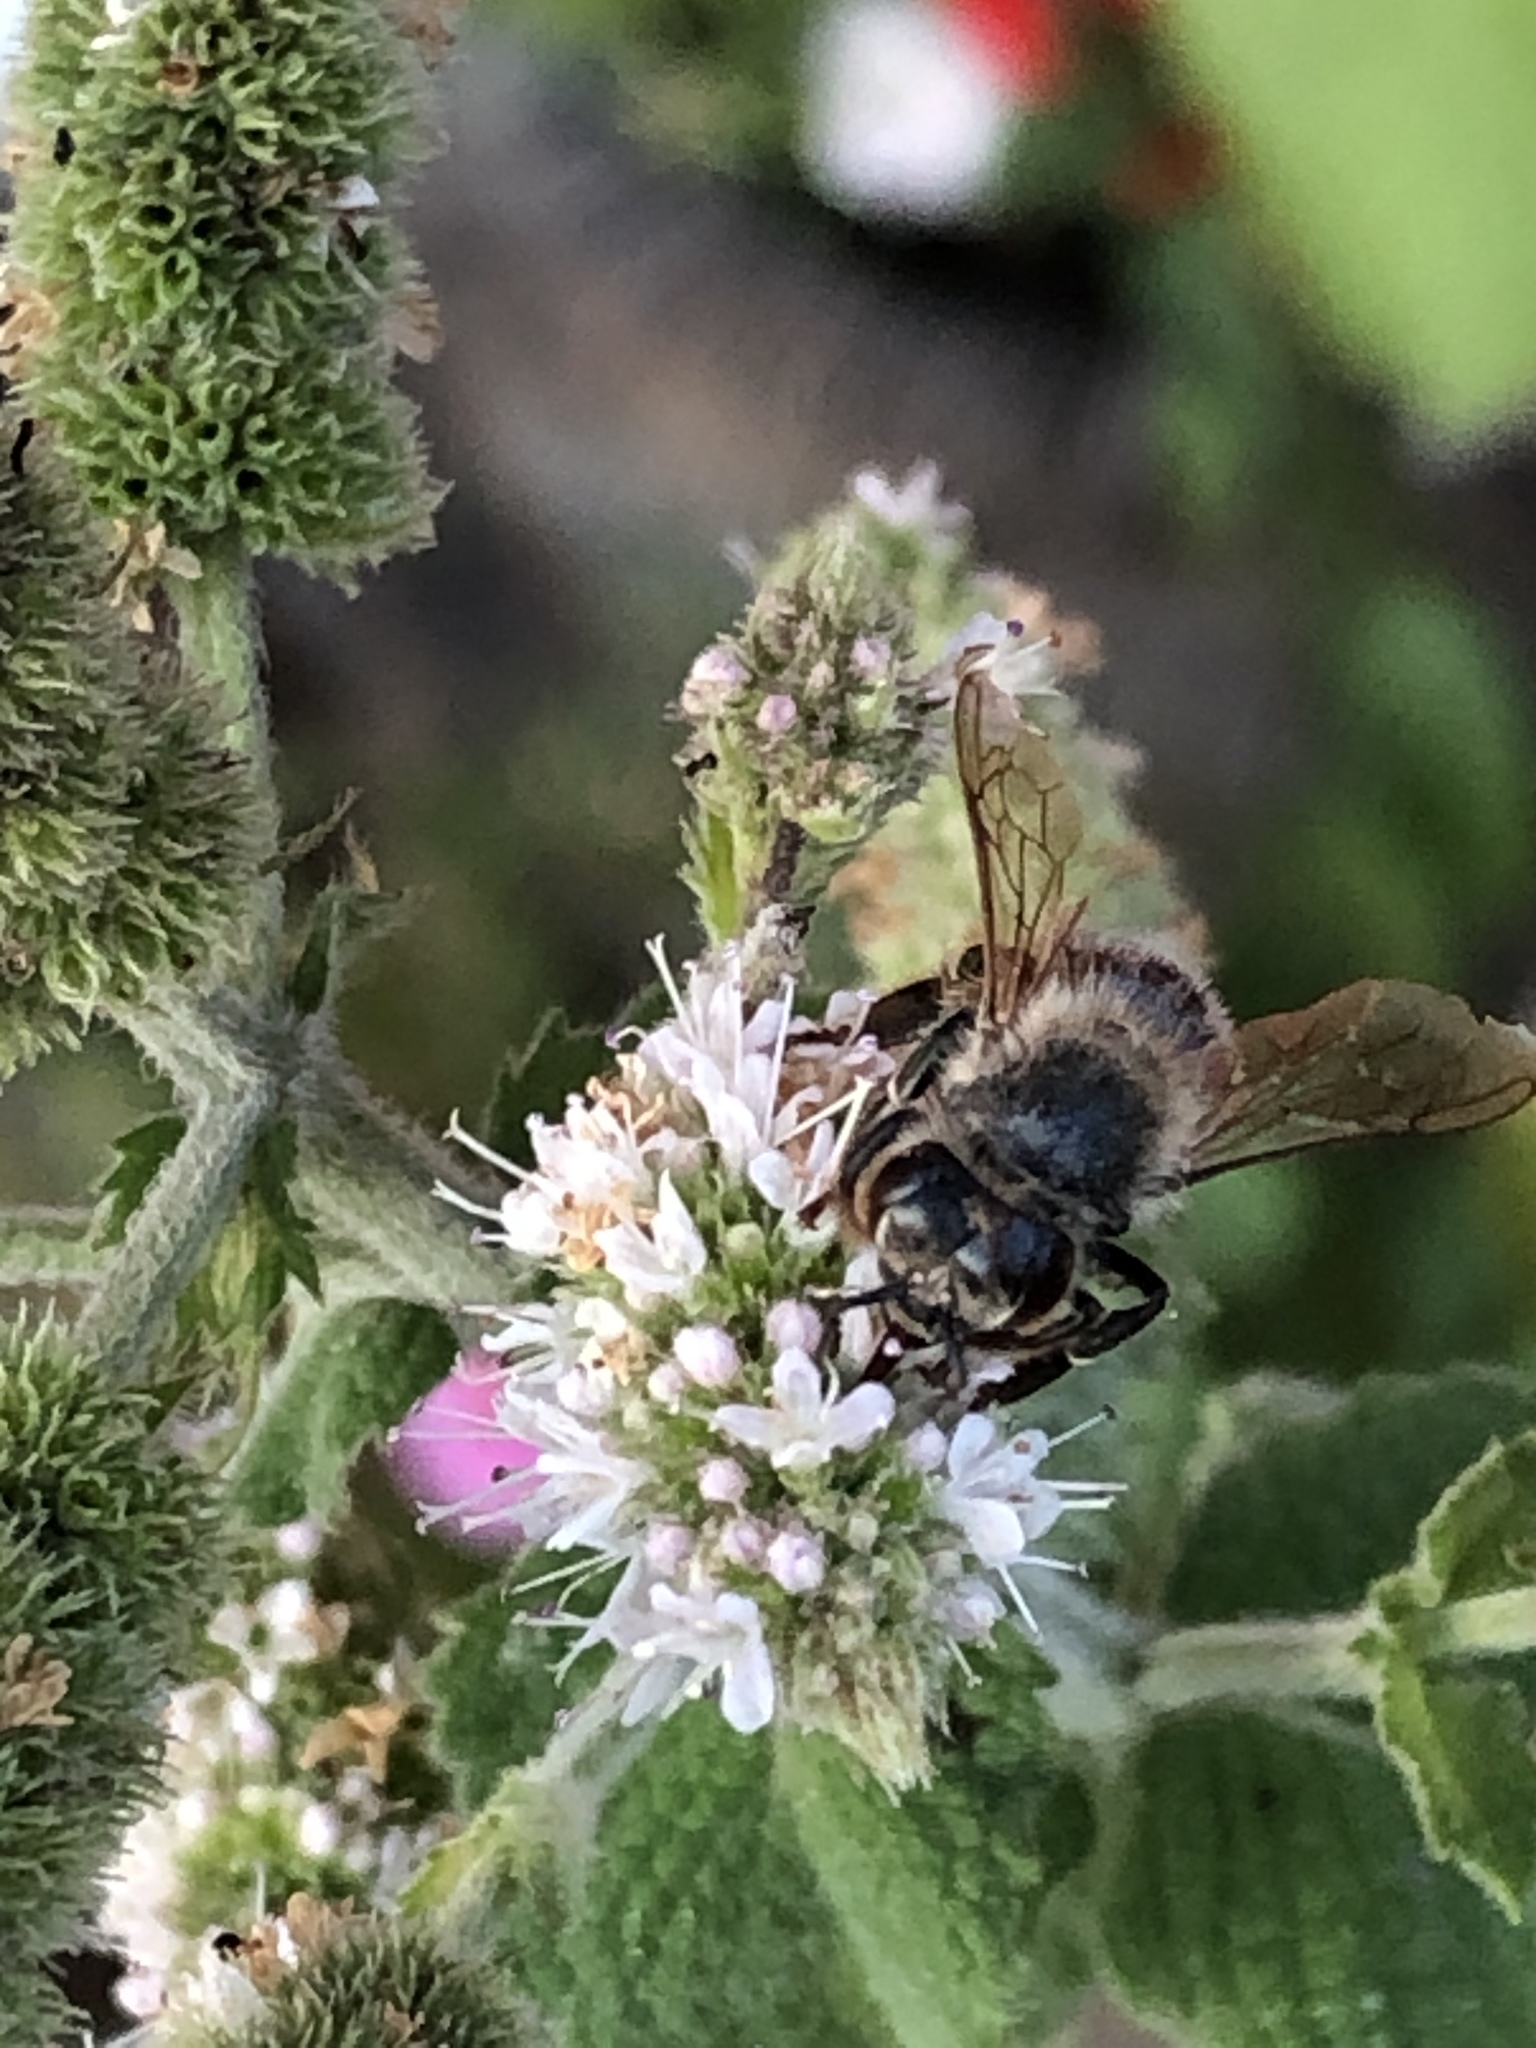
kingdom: Animalia
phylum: Arthropoda
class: Insecta
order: Hymenoptera
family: Apidae
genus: Apis
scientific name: Apis mellifera
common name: Honey bee
